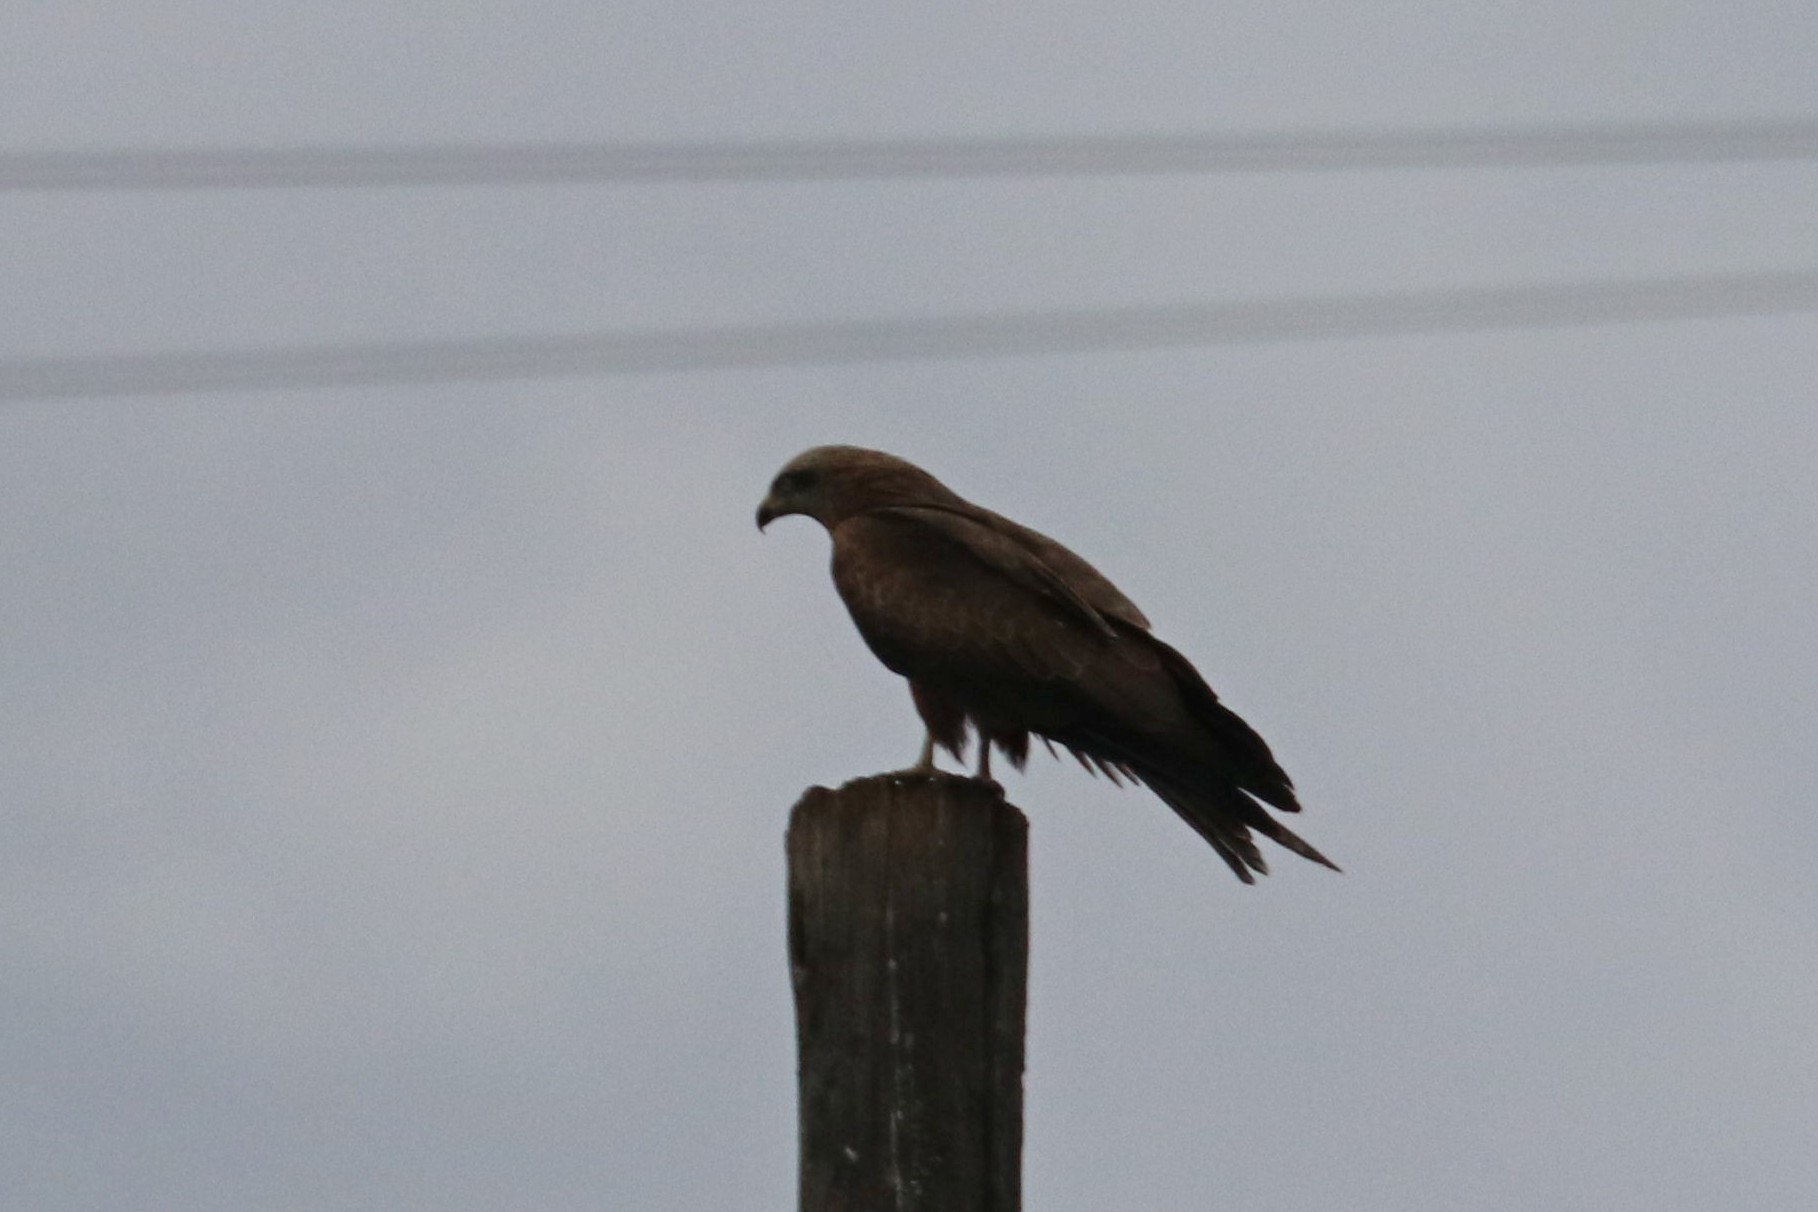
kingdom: Animalia
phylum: Chordata
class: Aves
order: Accipitriformes
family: Accipitridae
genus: Milvus
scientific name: Milvus migrans
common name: Black kite
